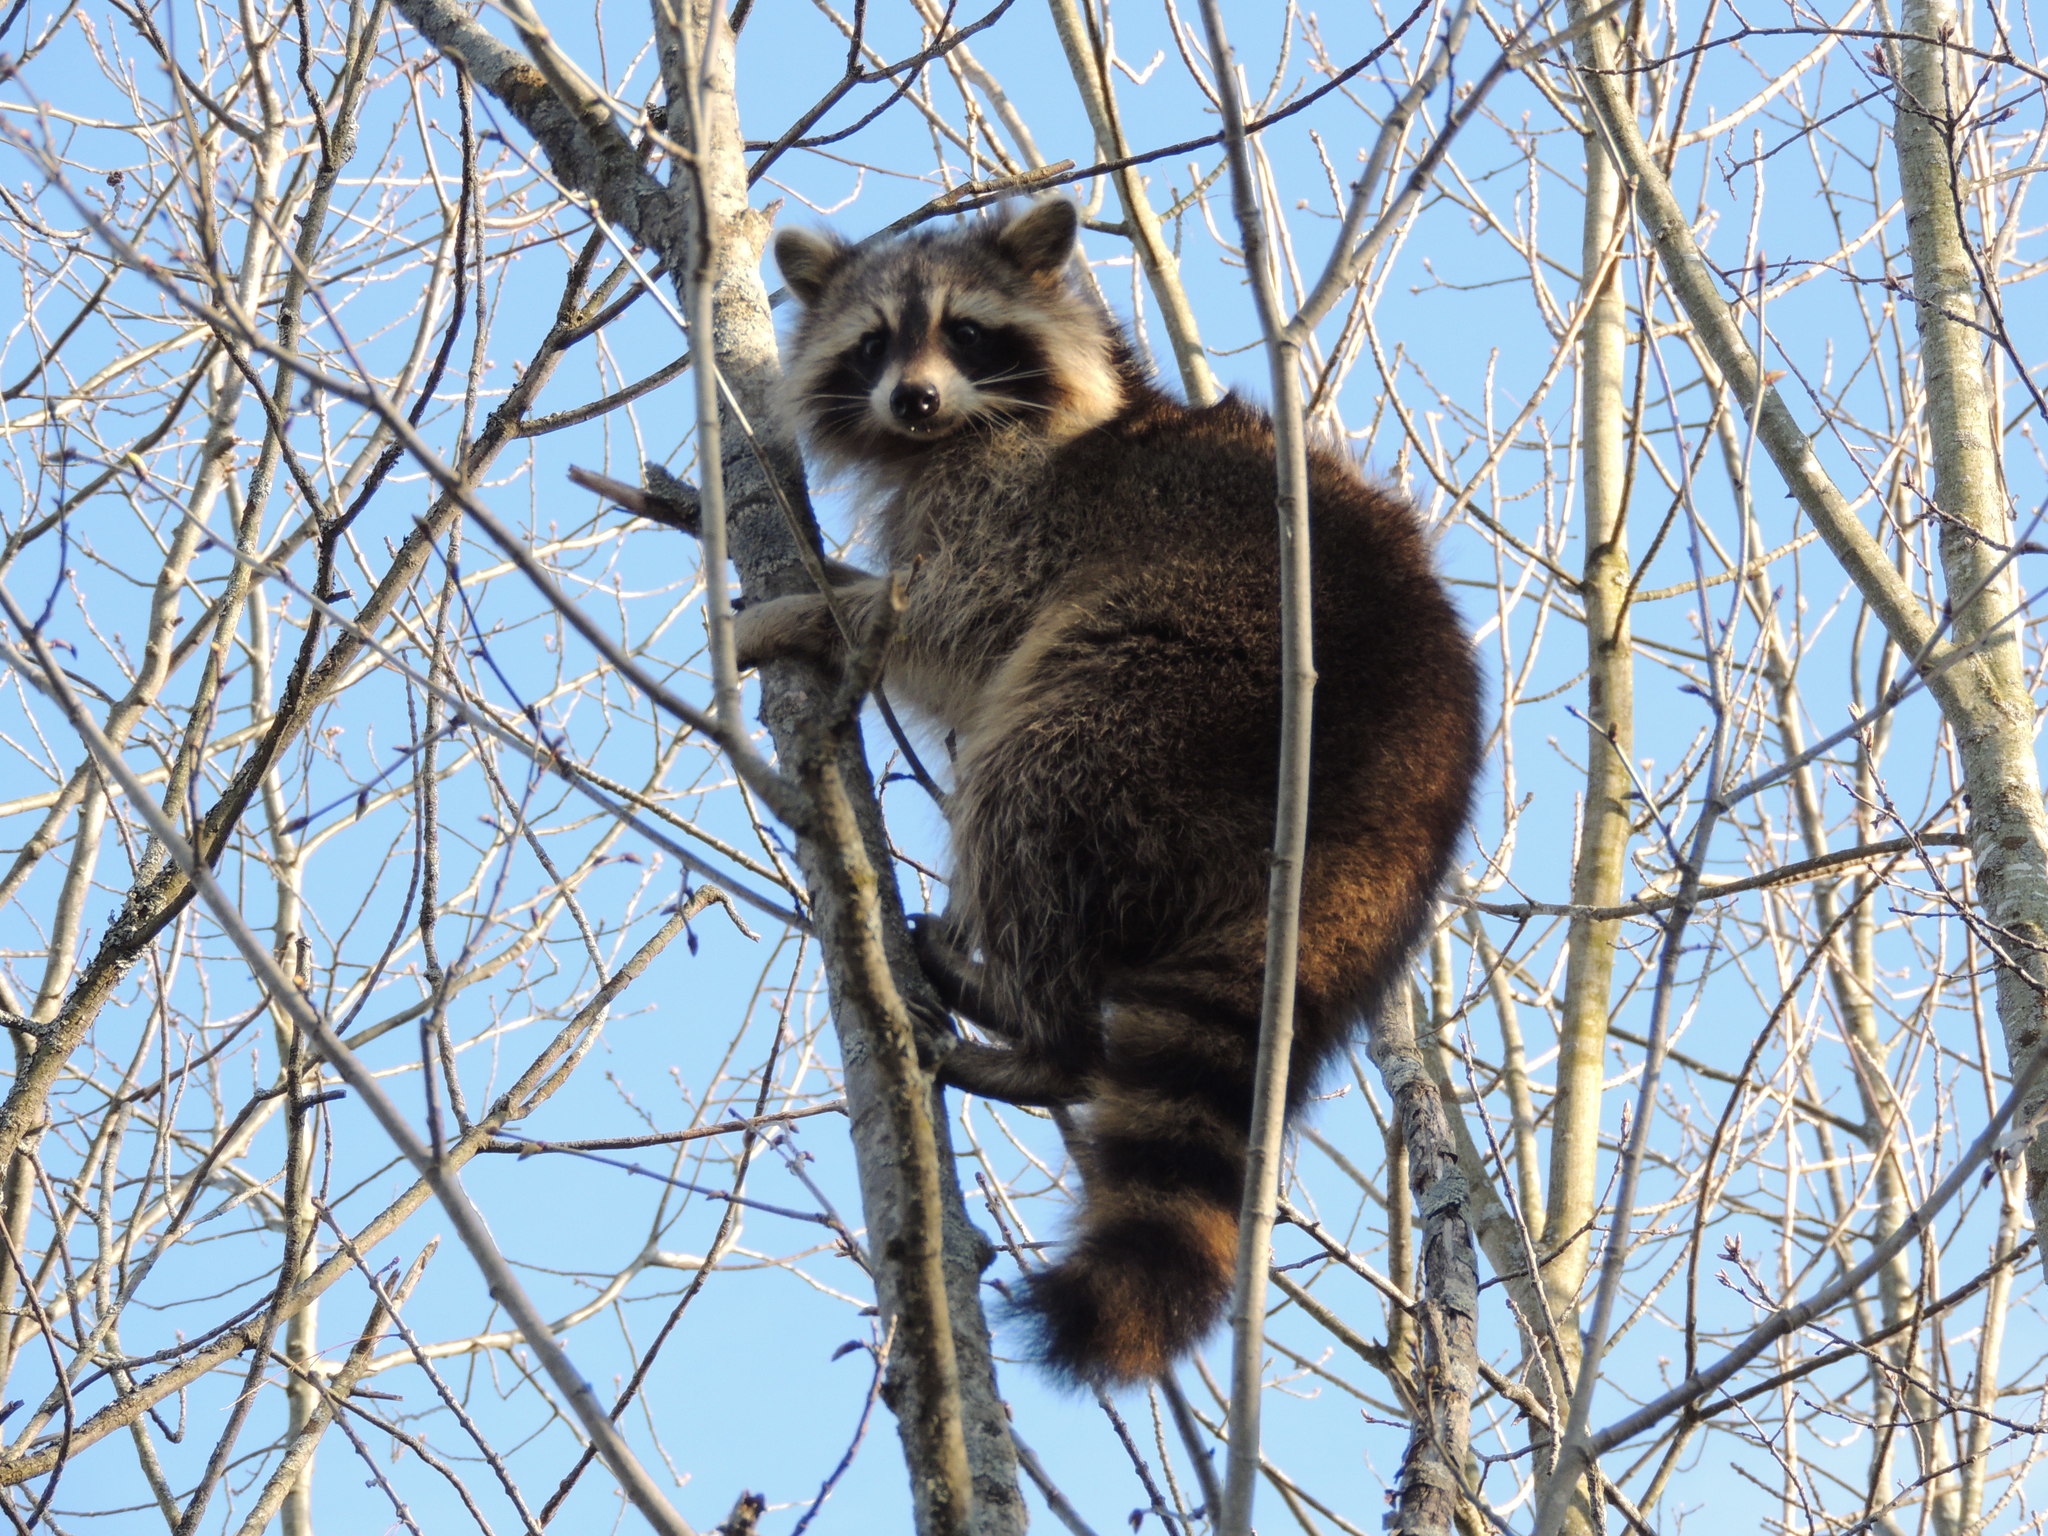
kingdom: Animalia
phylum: Chordata
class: Mammalia
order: Carnivora
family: Procyonidae
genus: Procyon
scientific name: Procyon lotor
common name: Raccoon
